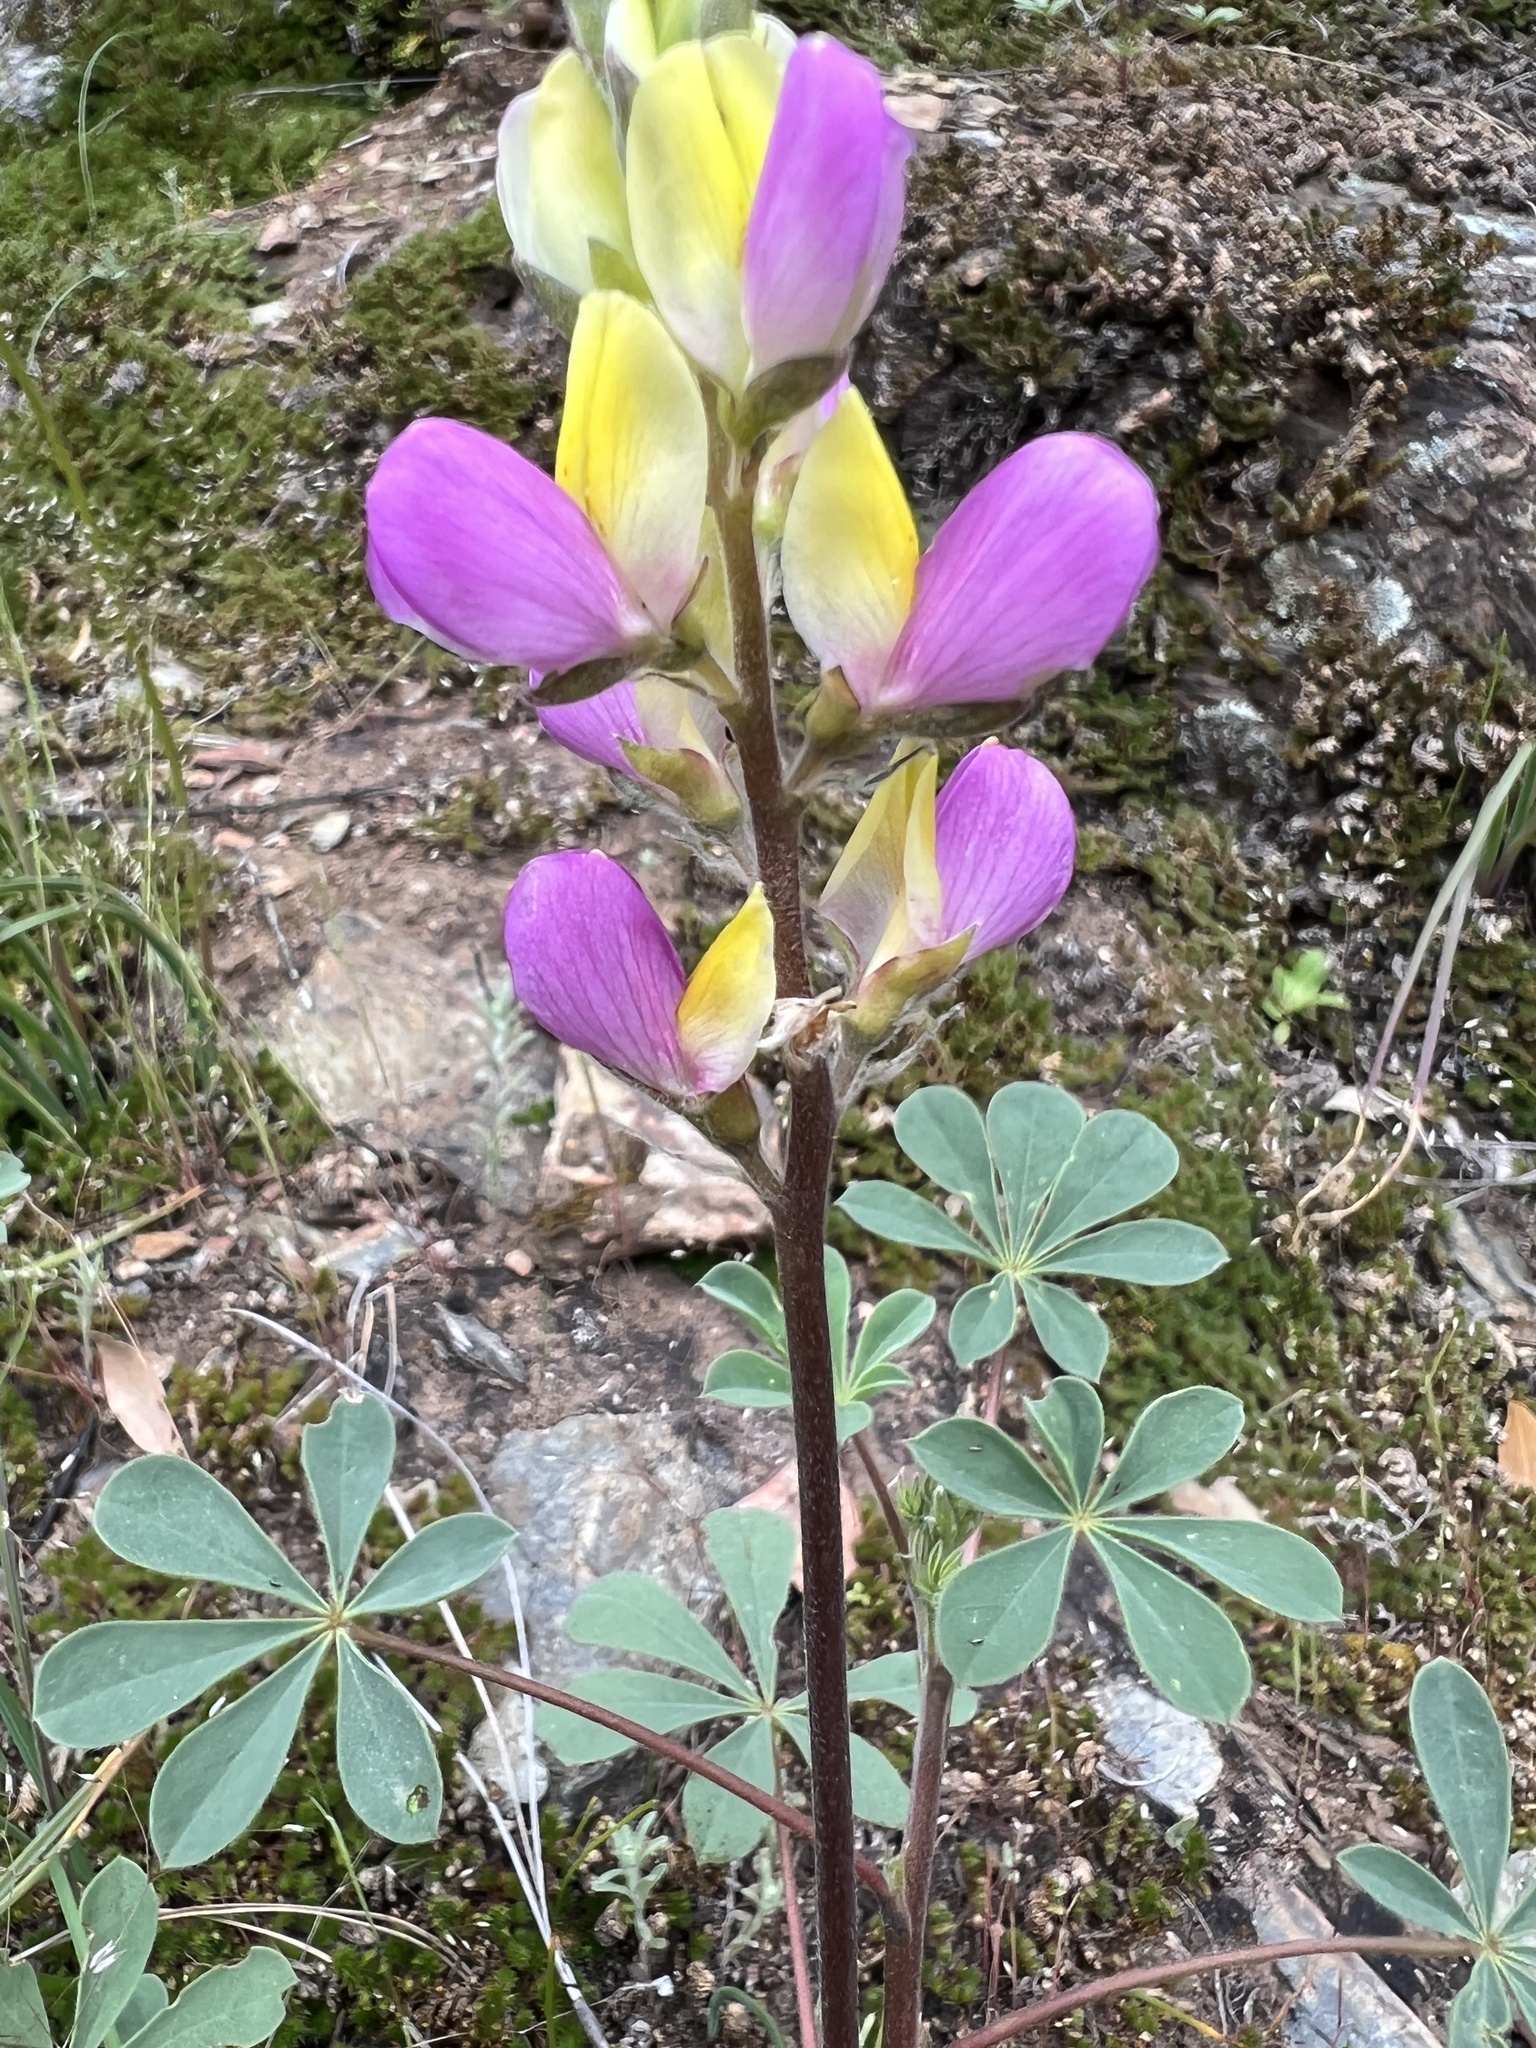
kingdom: Plantae
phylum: Tracheophyta
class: Magnoliopsida
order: Fabales
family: Fabaceae
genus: Lupinus
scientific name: Lupinus stiversii
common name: Harlequin lupine
